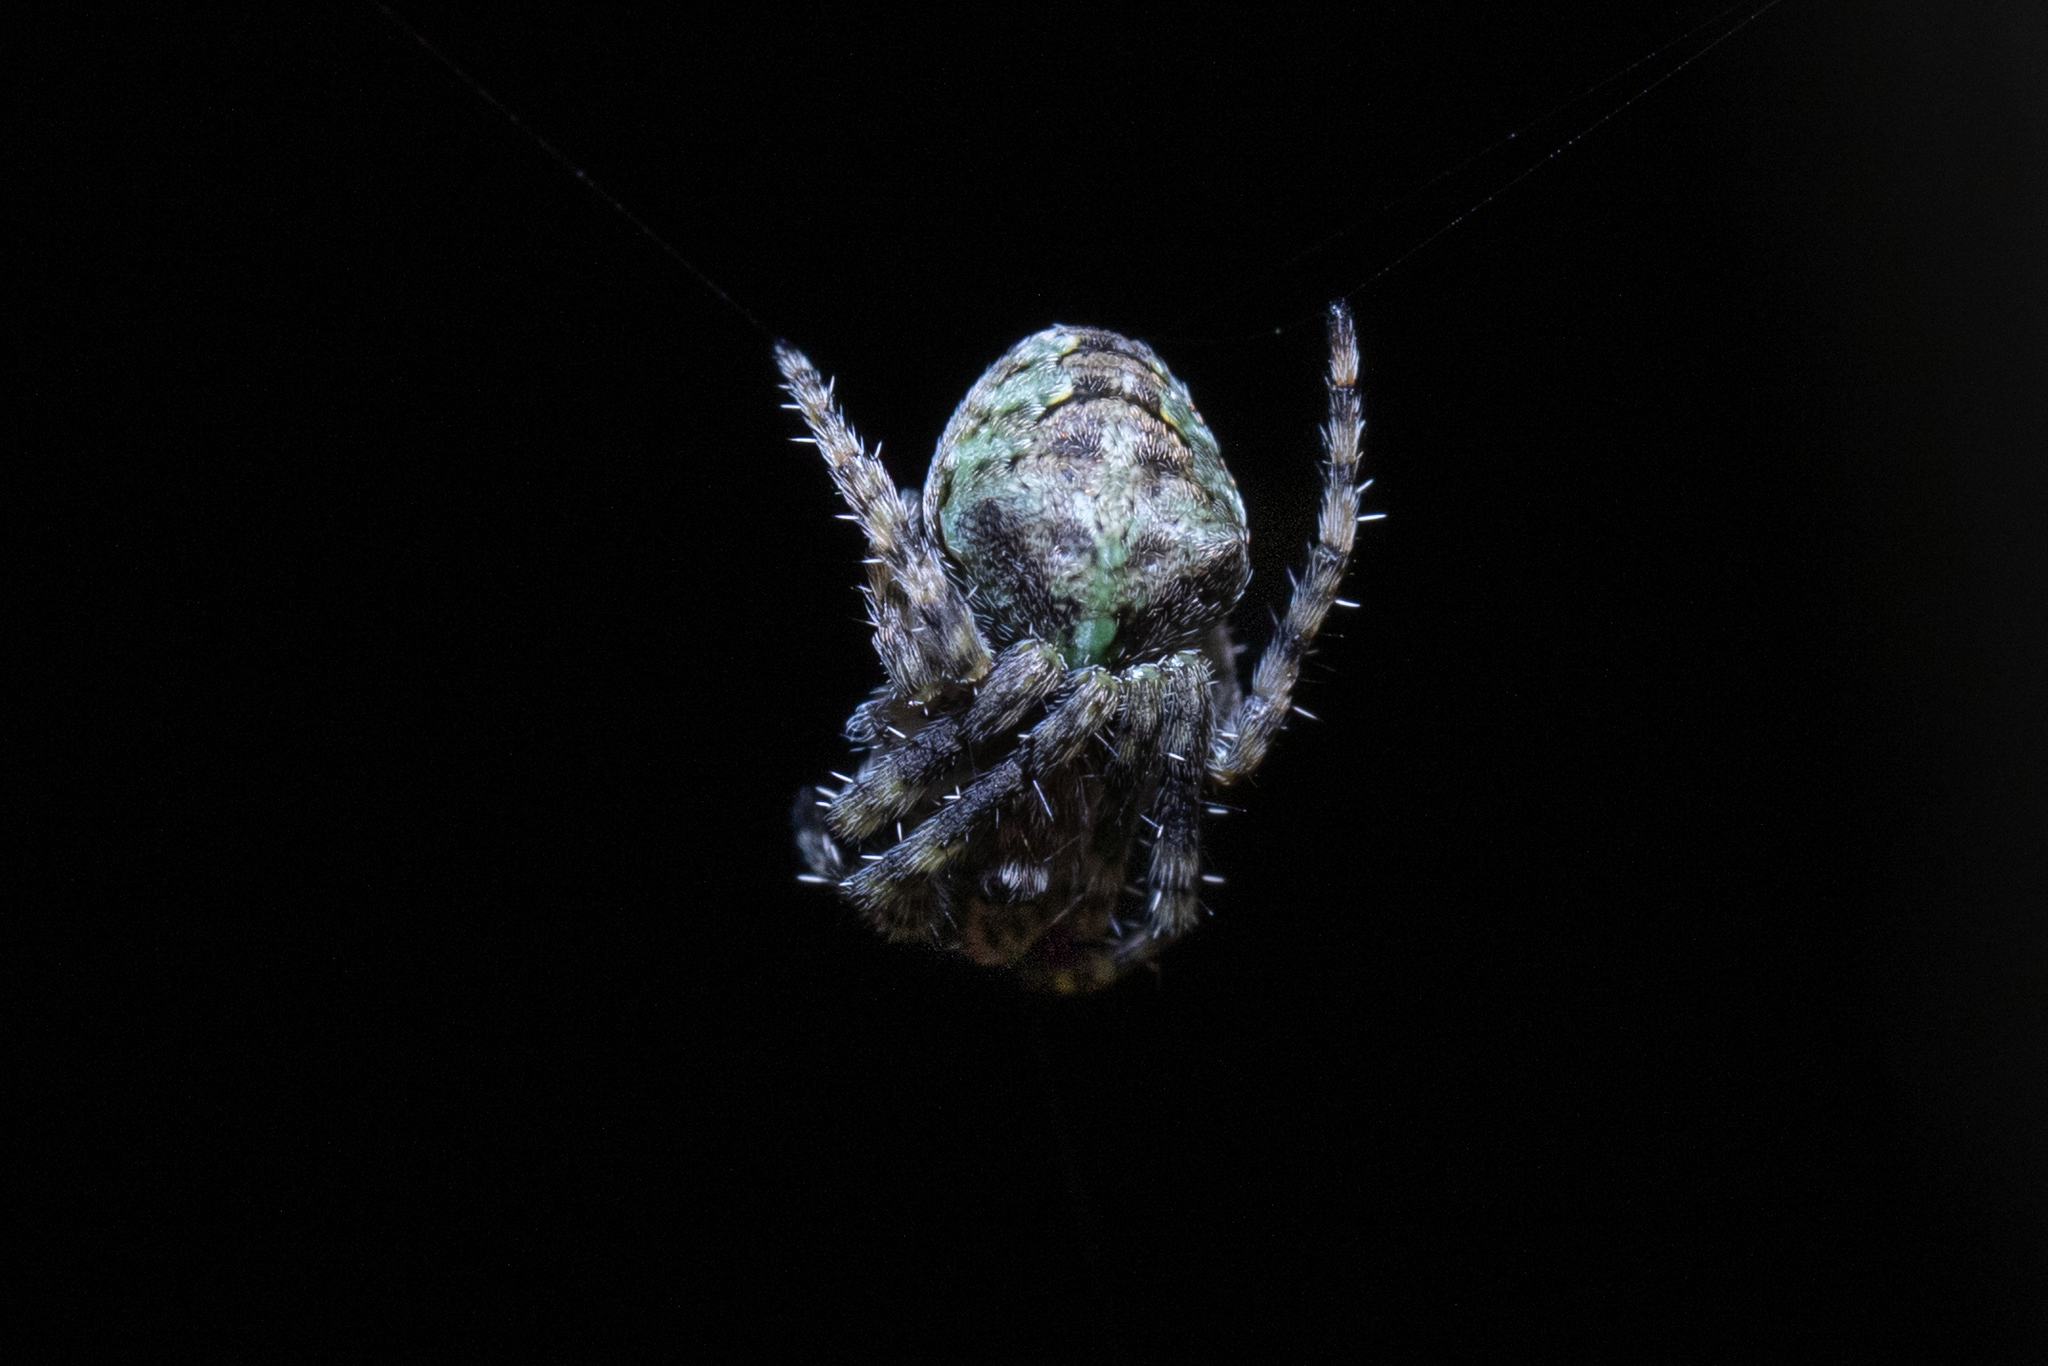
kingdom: Animalia
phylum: Arthropoda
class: Arachnida
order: Araneae
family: Araneidae
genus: Gibbaranea
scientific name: Gibbaranea gibbosa
